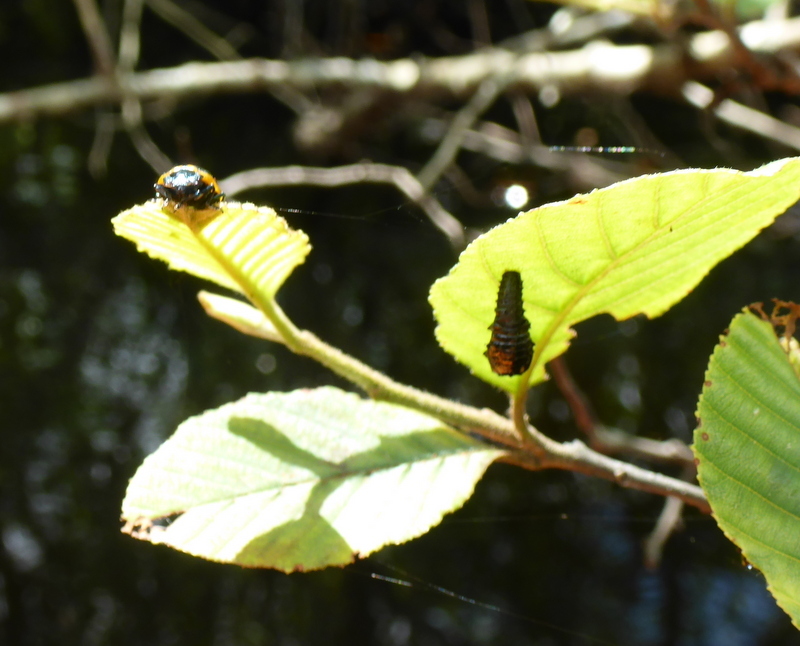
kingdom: Animalia
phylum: Arthropoda
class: Insecta
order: Coleoptera
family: Chrysomelidae
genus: Chrysomela
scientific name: Chrysomela interrupta
